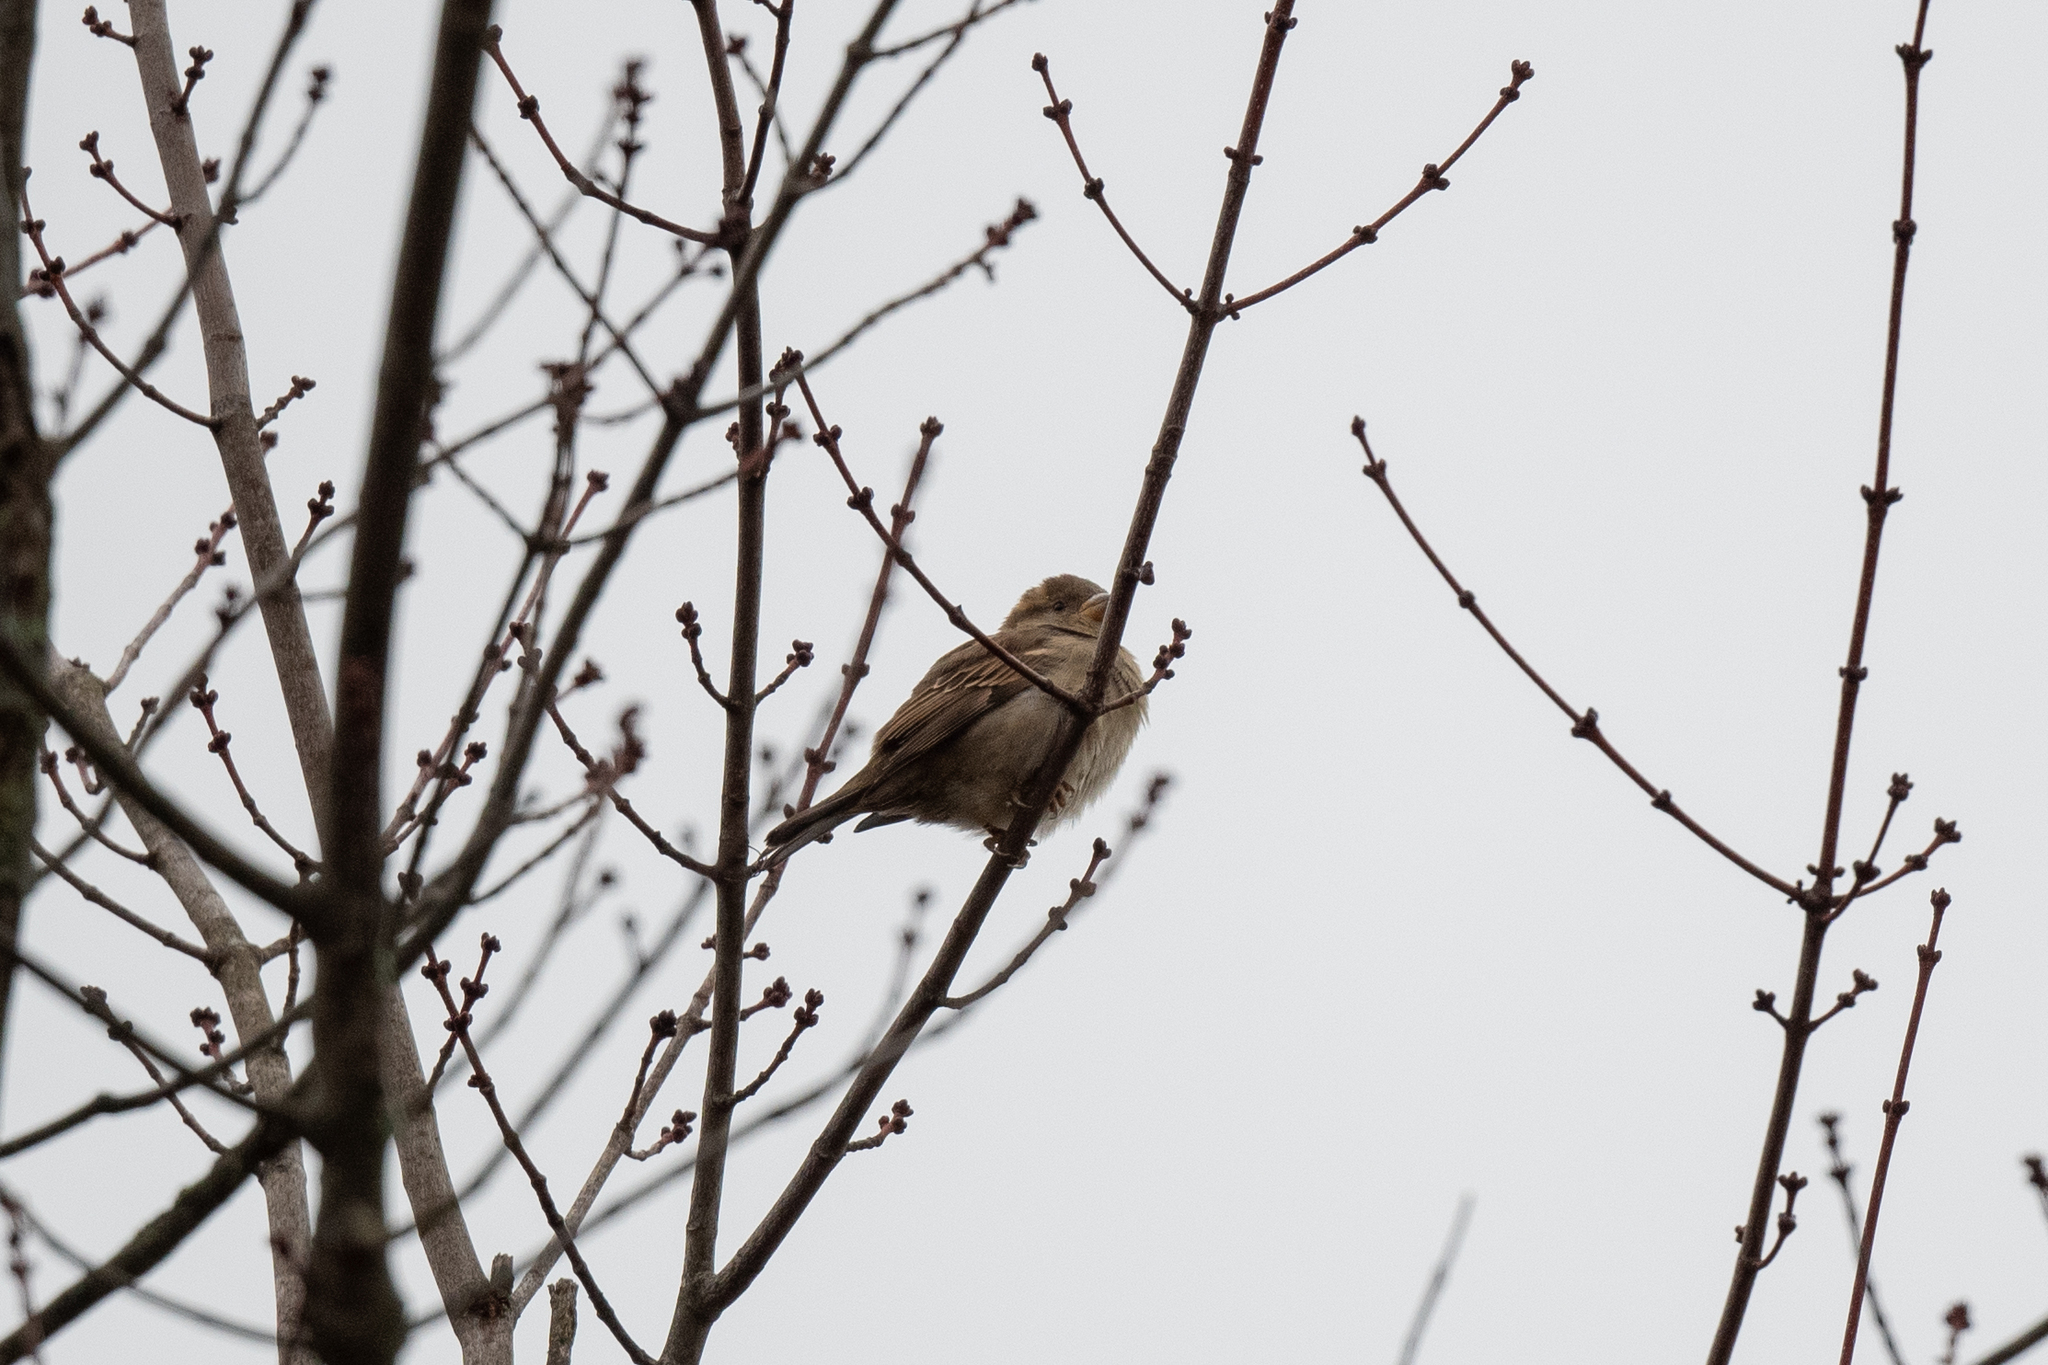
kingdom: Animalia
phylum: Chordata
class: Aves
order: Passeriformes
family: Passeridae
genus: Passer
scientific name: Passer domesticus
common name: House sparrow
